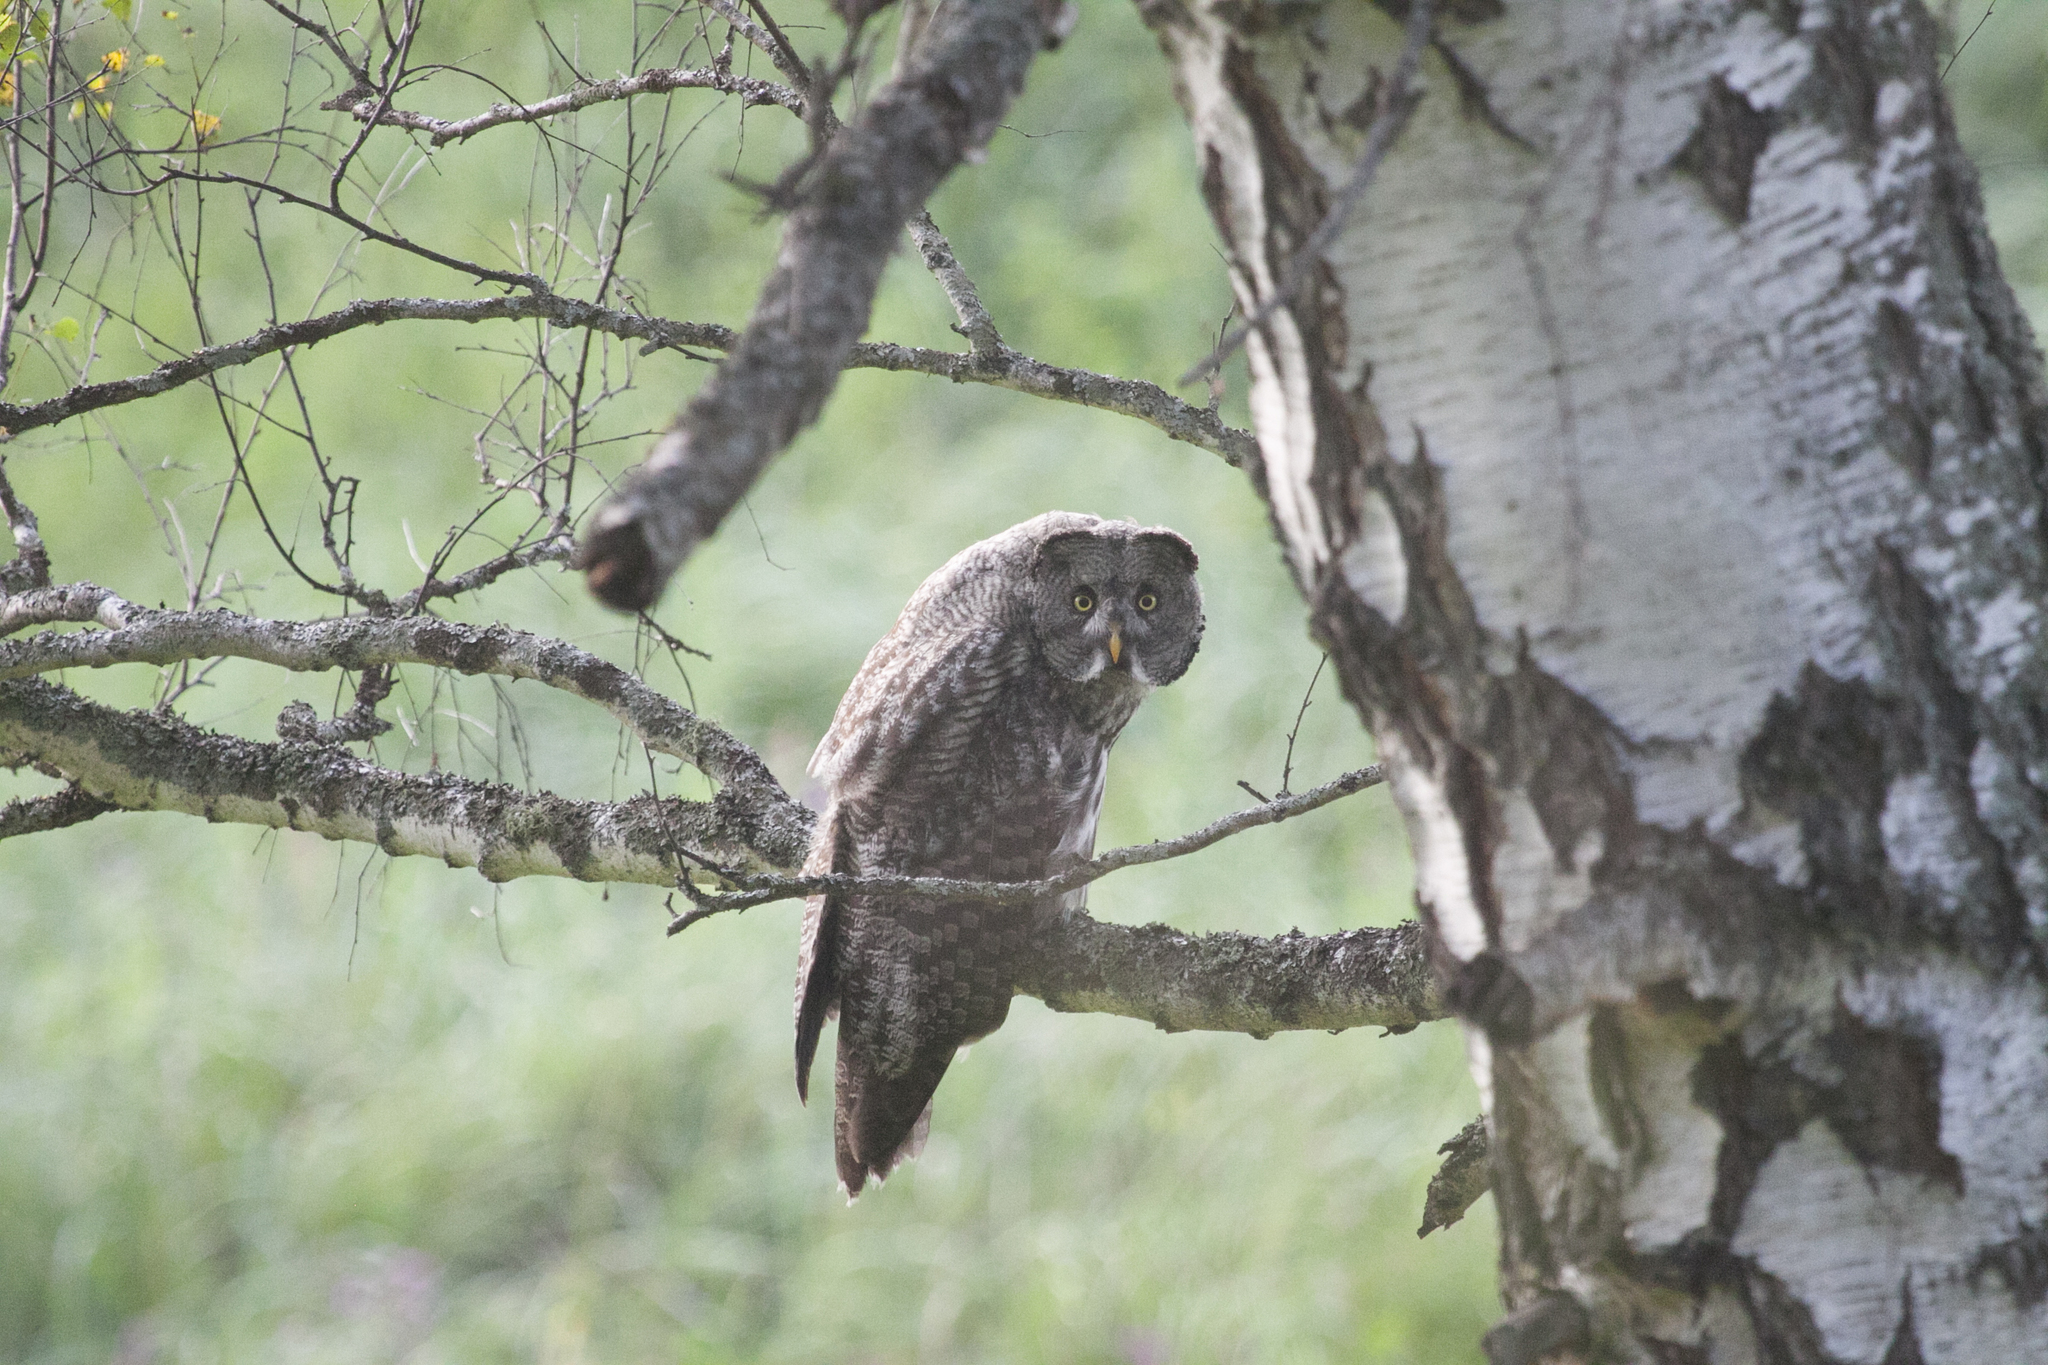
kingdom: Animalia
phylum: Chordata
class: Aves
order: Strigiformes
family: Strigidae
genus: Strix
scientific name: Strix nebulosa
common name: Great grey owl
